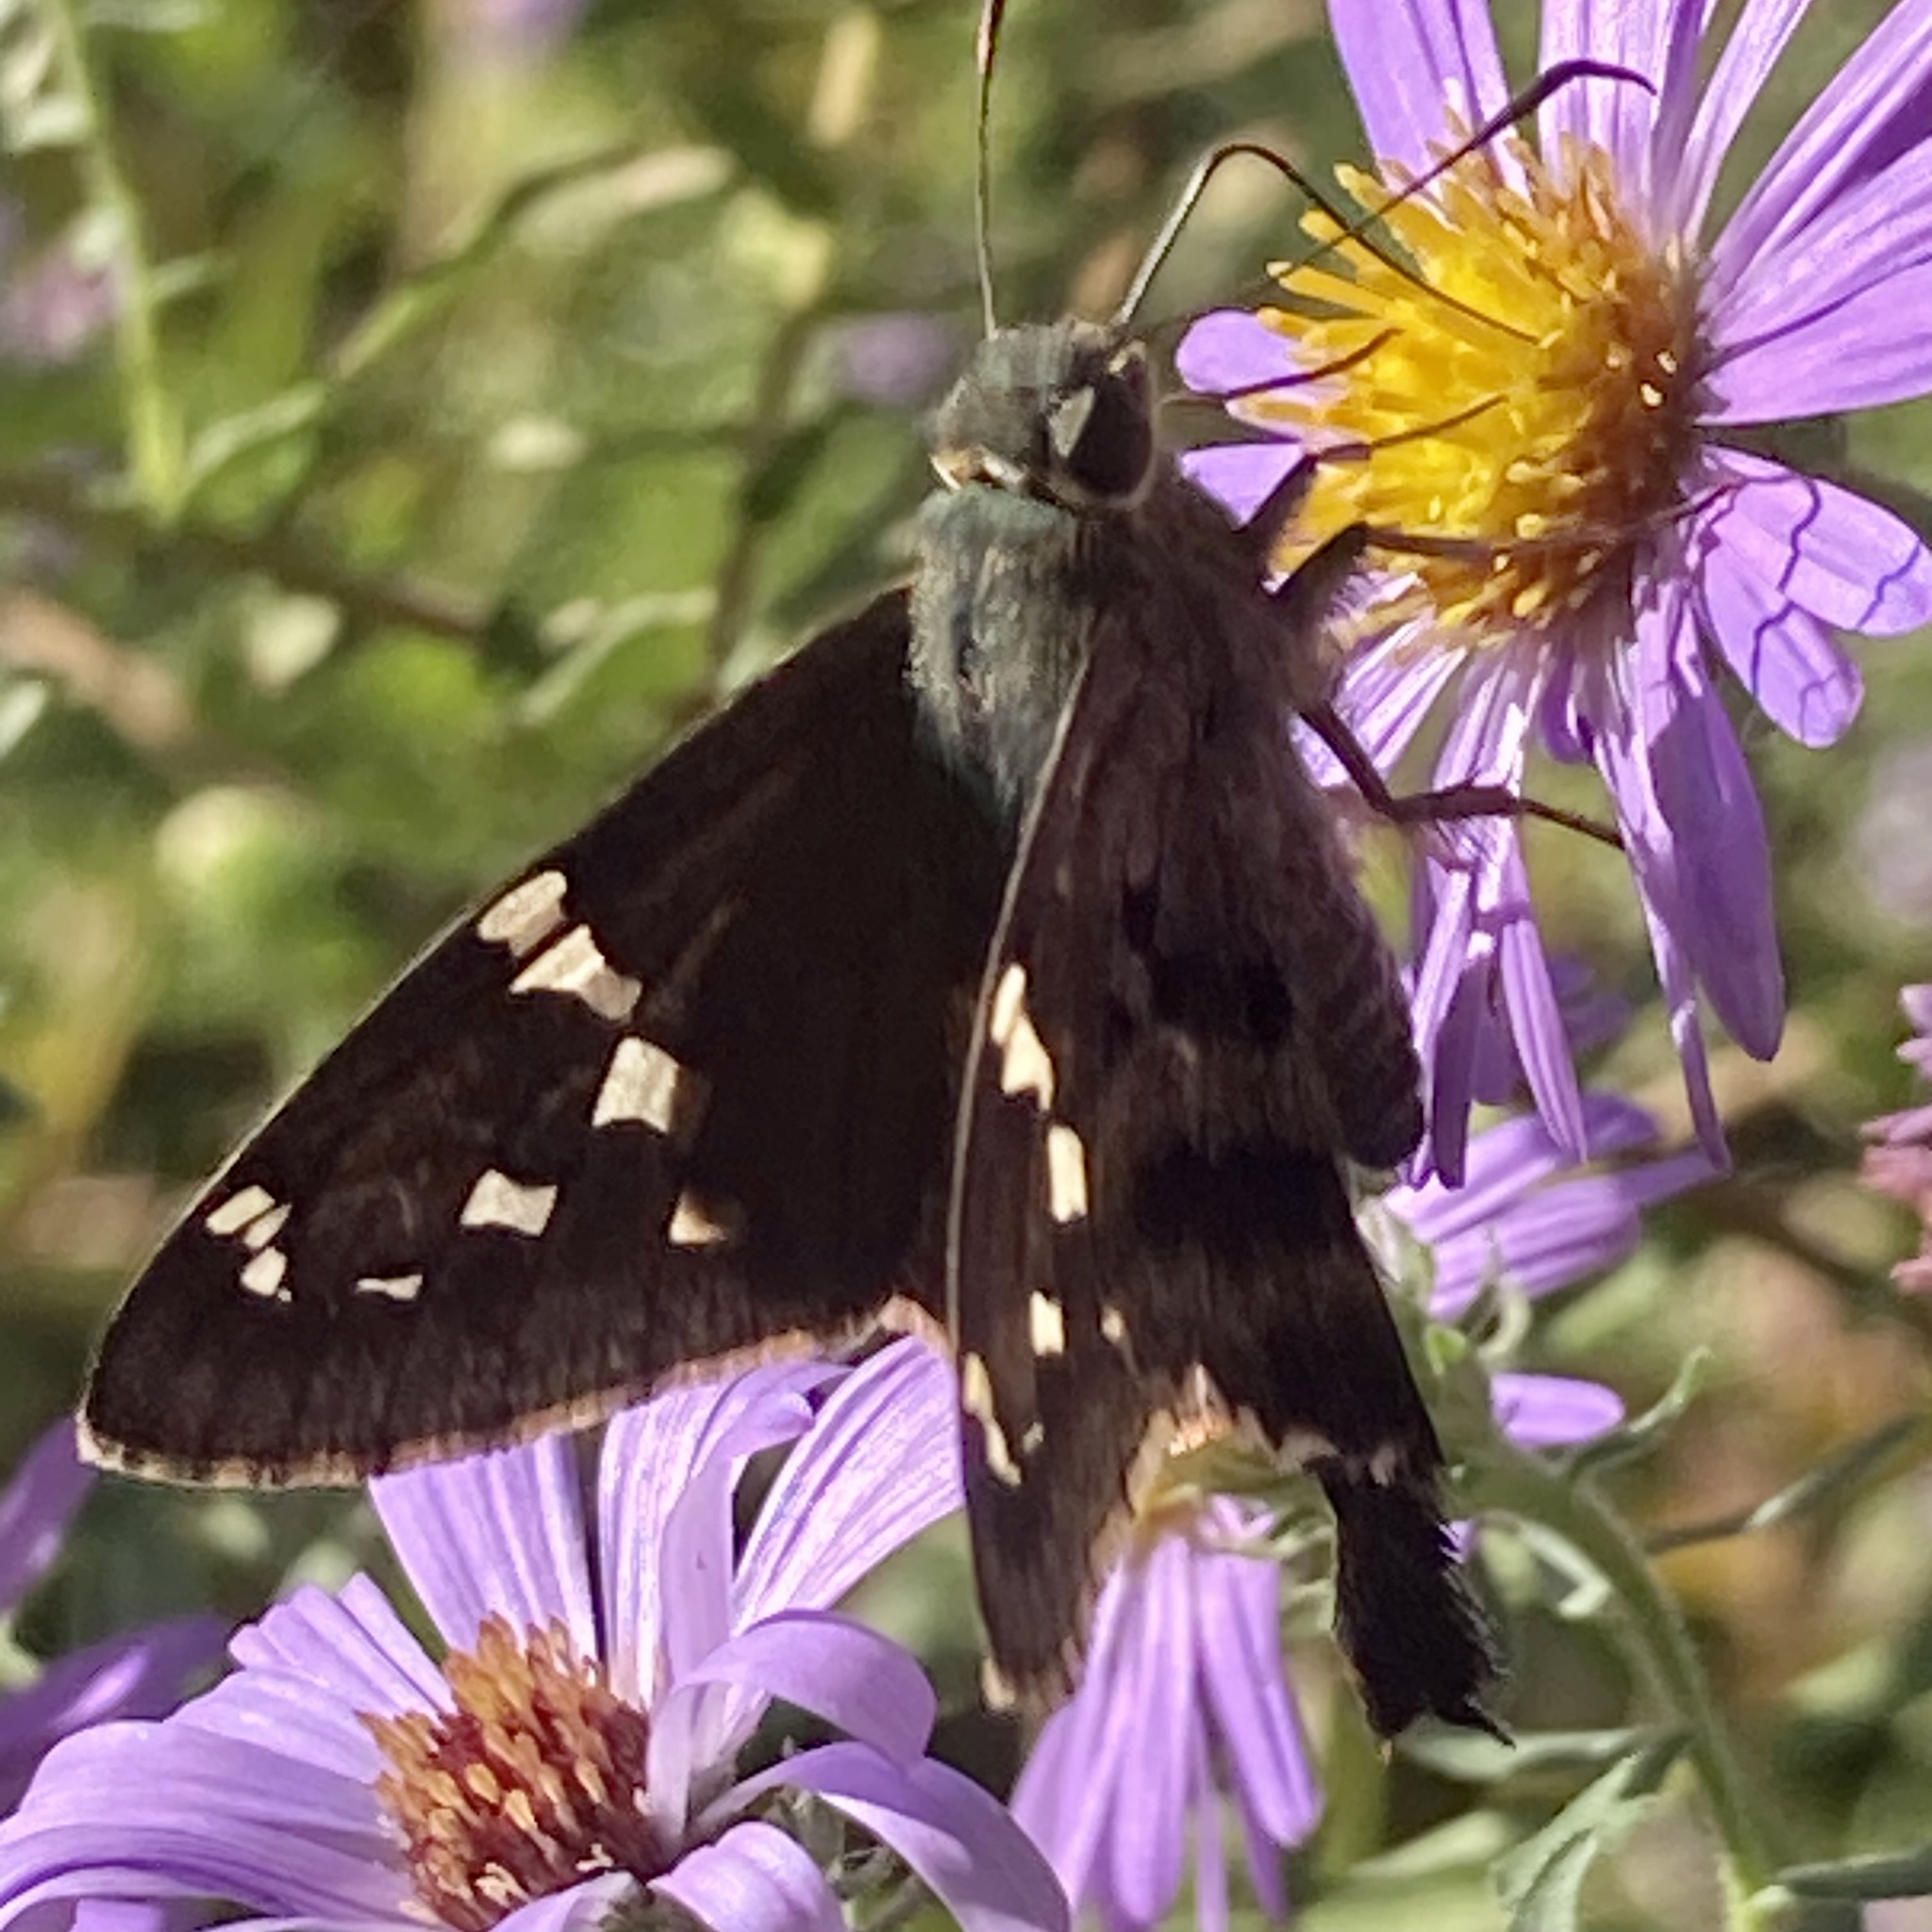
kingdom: Animalia
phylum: Arthropoda
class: Insecta
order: Lepidoptera
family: Hesperiidae
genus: Urbanus
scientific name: Urbanus proteus
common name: Long-tailed skipper
